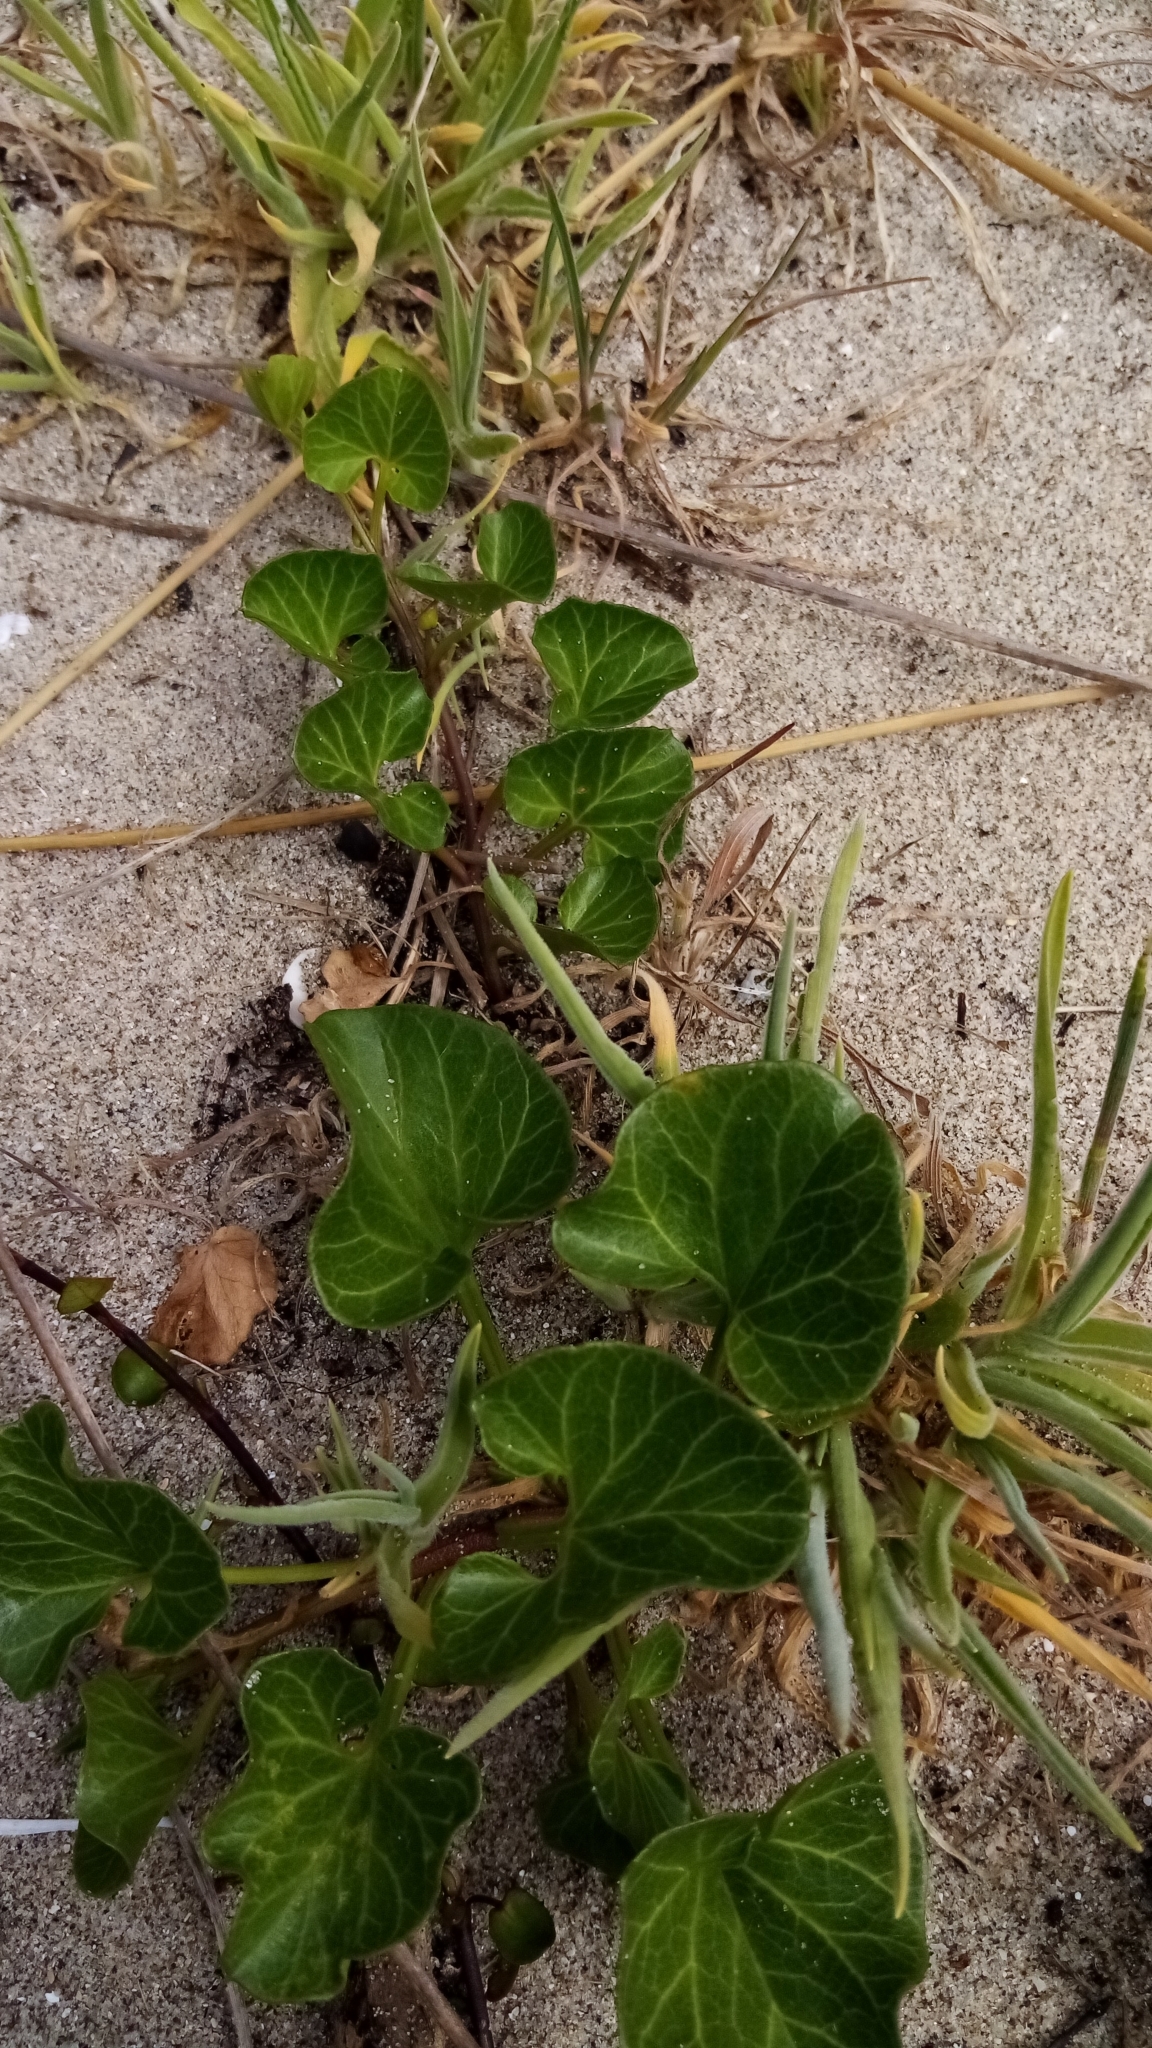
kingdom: Plantae
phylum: Tracheophyta
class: Magnoliopsida
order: Solanales
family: Convolvulaceae
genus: Calystegia
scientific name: Calystegia soldanella
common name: Sea bindweed
